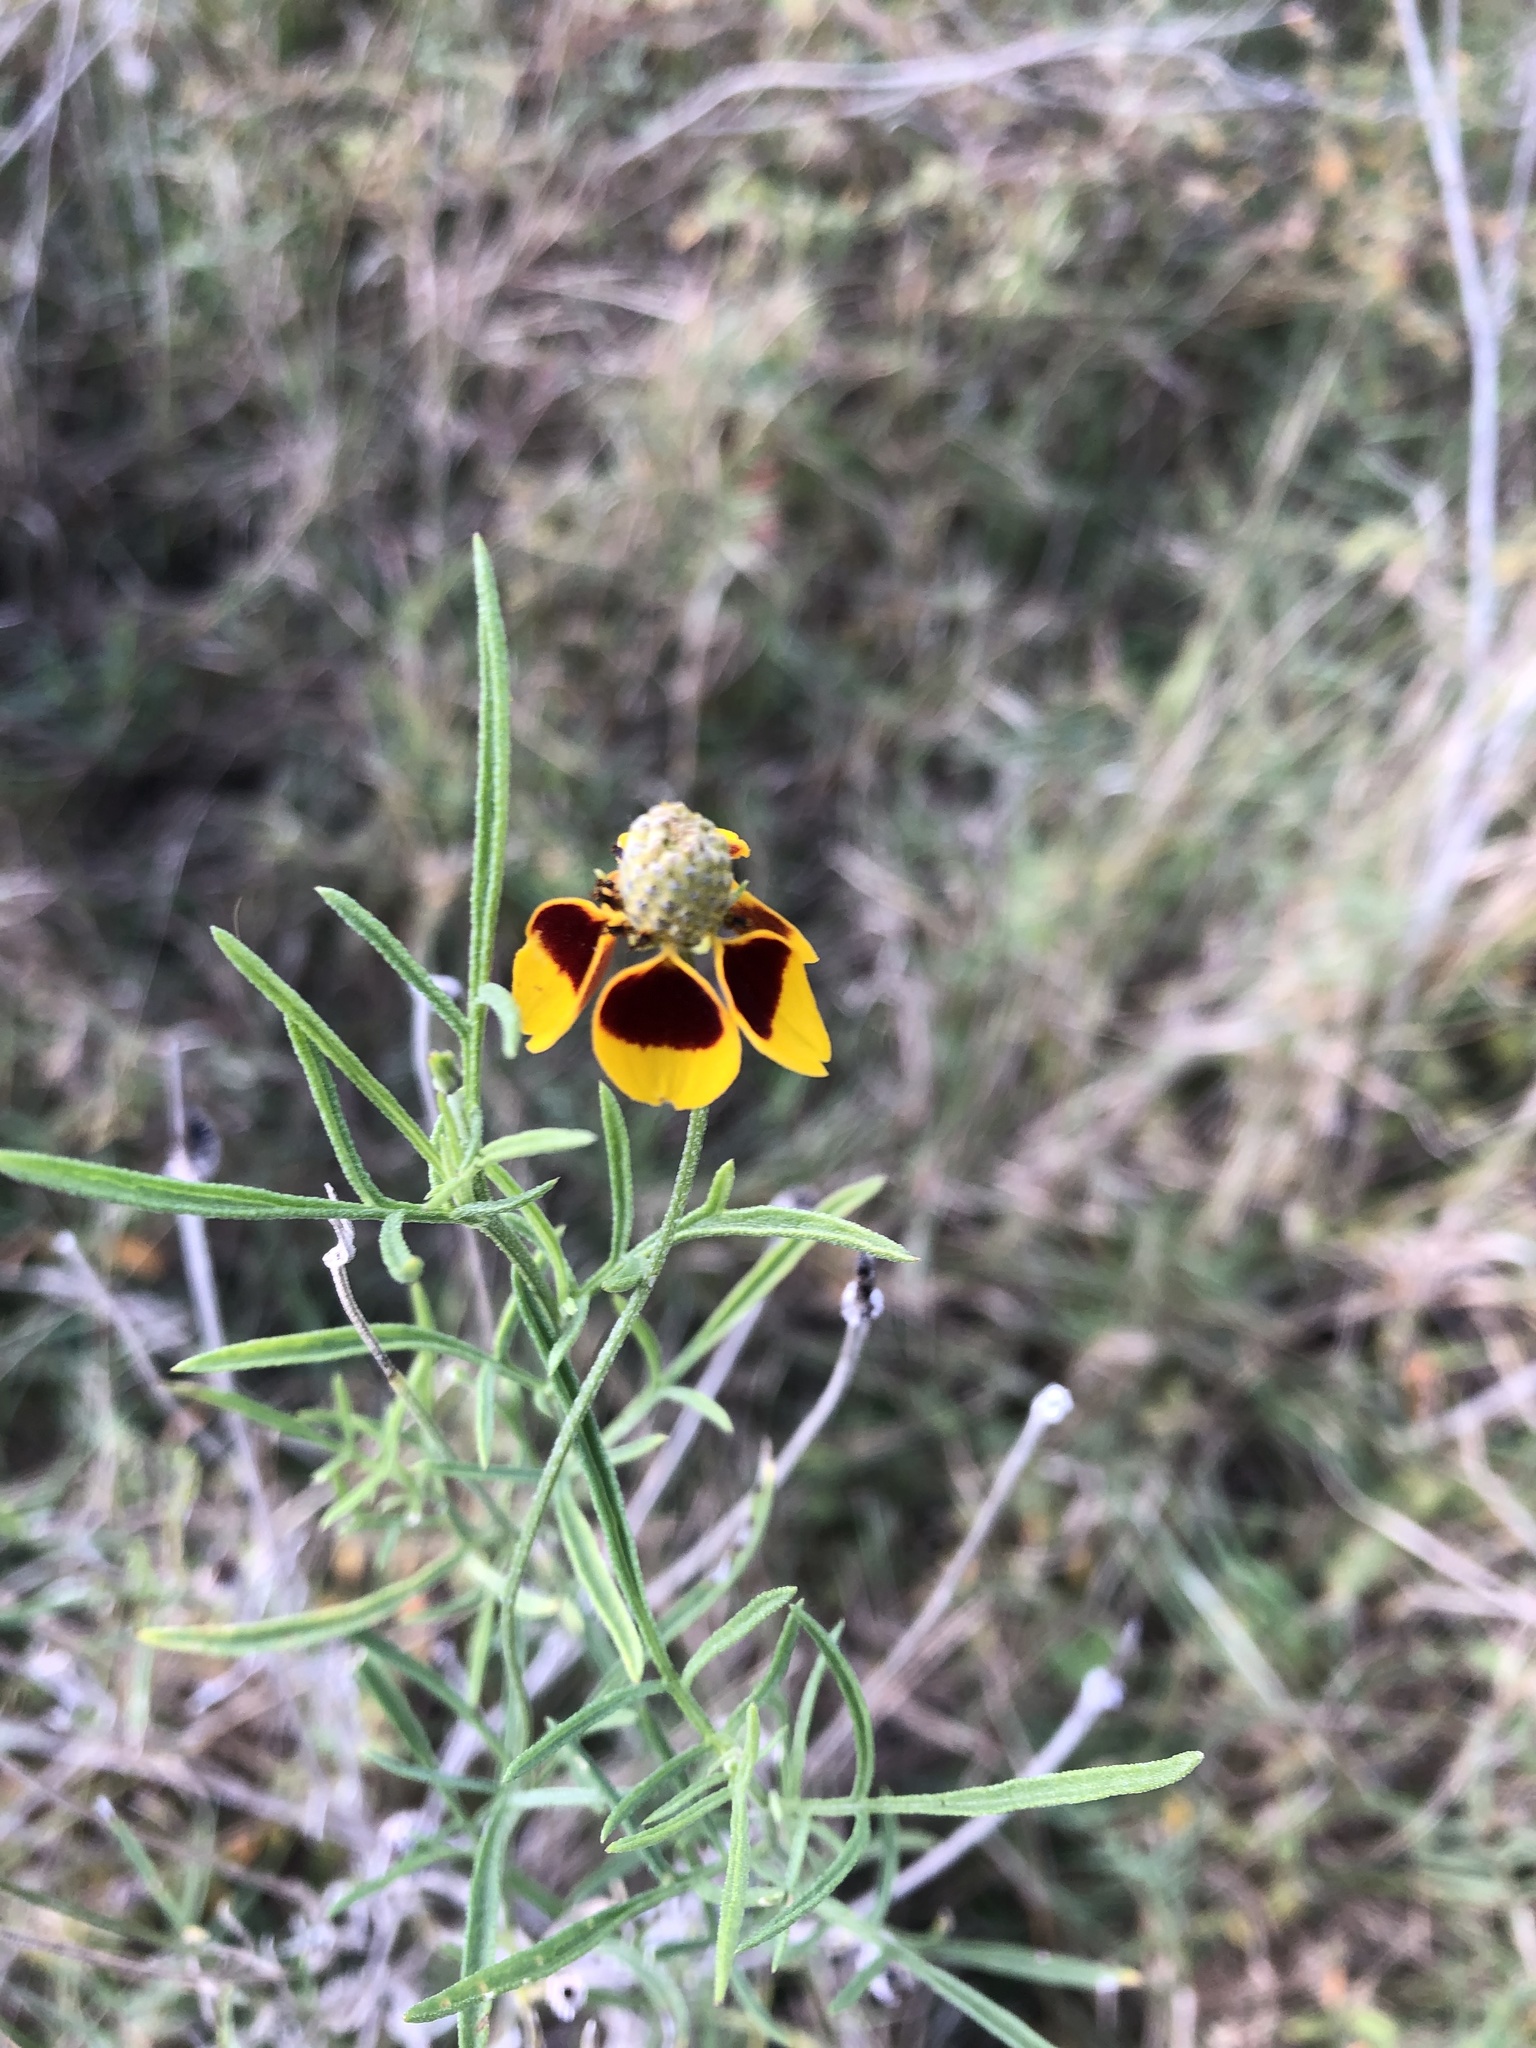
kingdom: Plantae
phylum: Tracheophyta
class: Magnoliopsida
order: Asterales
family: Asteraceae
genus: Ratibida
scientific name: Ratibida columnifera
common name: Prairie coneflower
